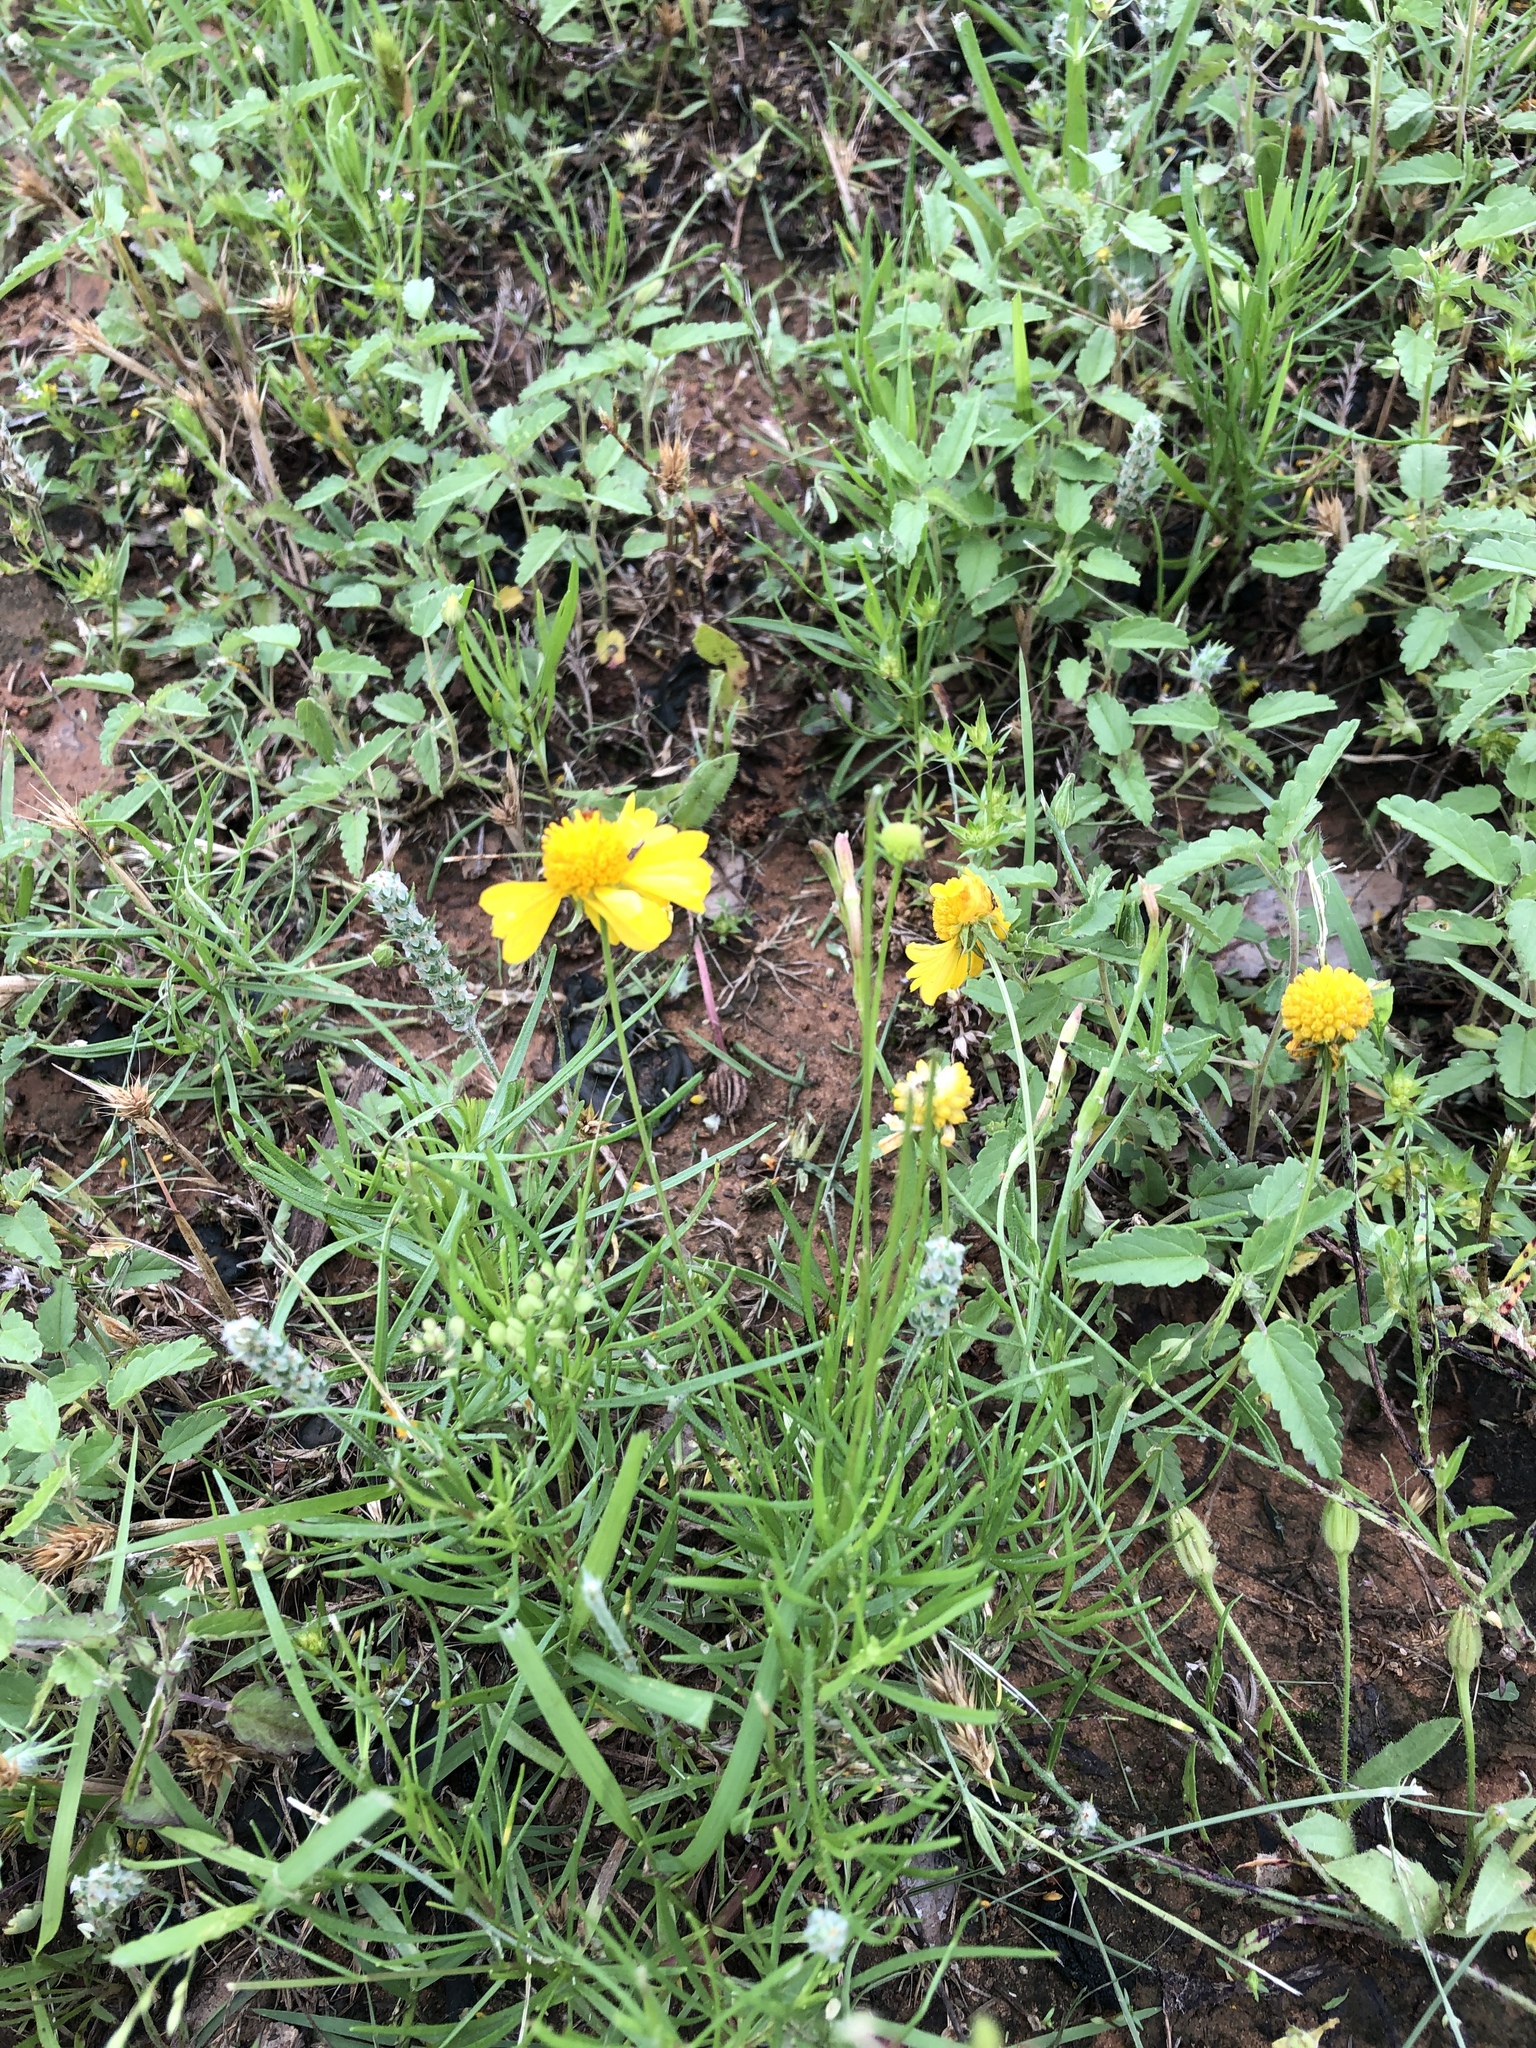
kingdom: Plantae
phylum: Tracheophyta
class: Magnoliopsida
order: Asterales
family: Asteraceae
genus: Helenium
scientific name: Helenium amarum
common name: Bitter sneezeweed
